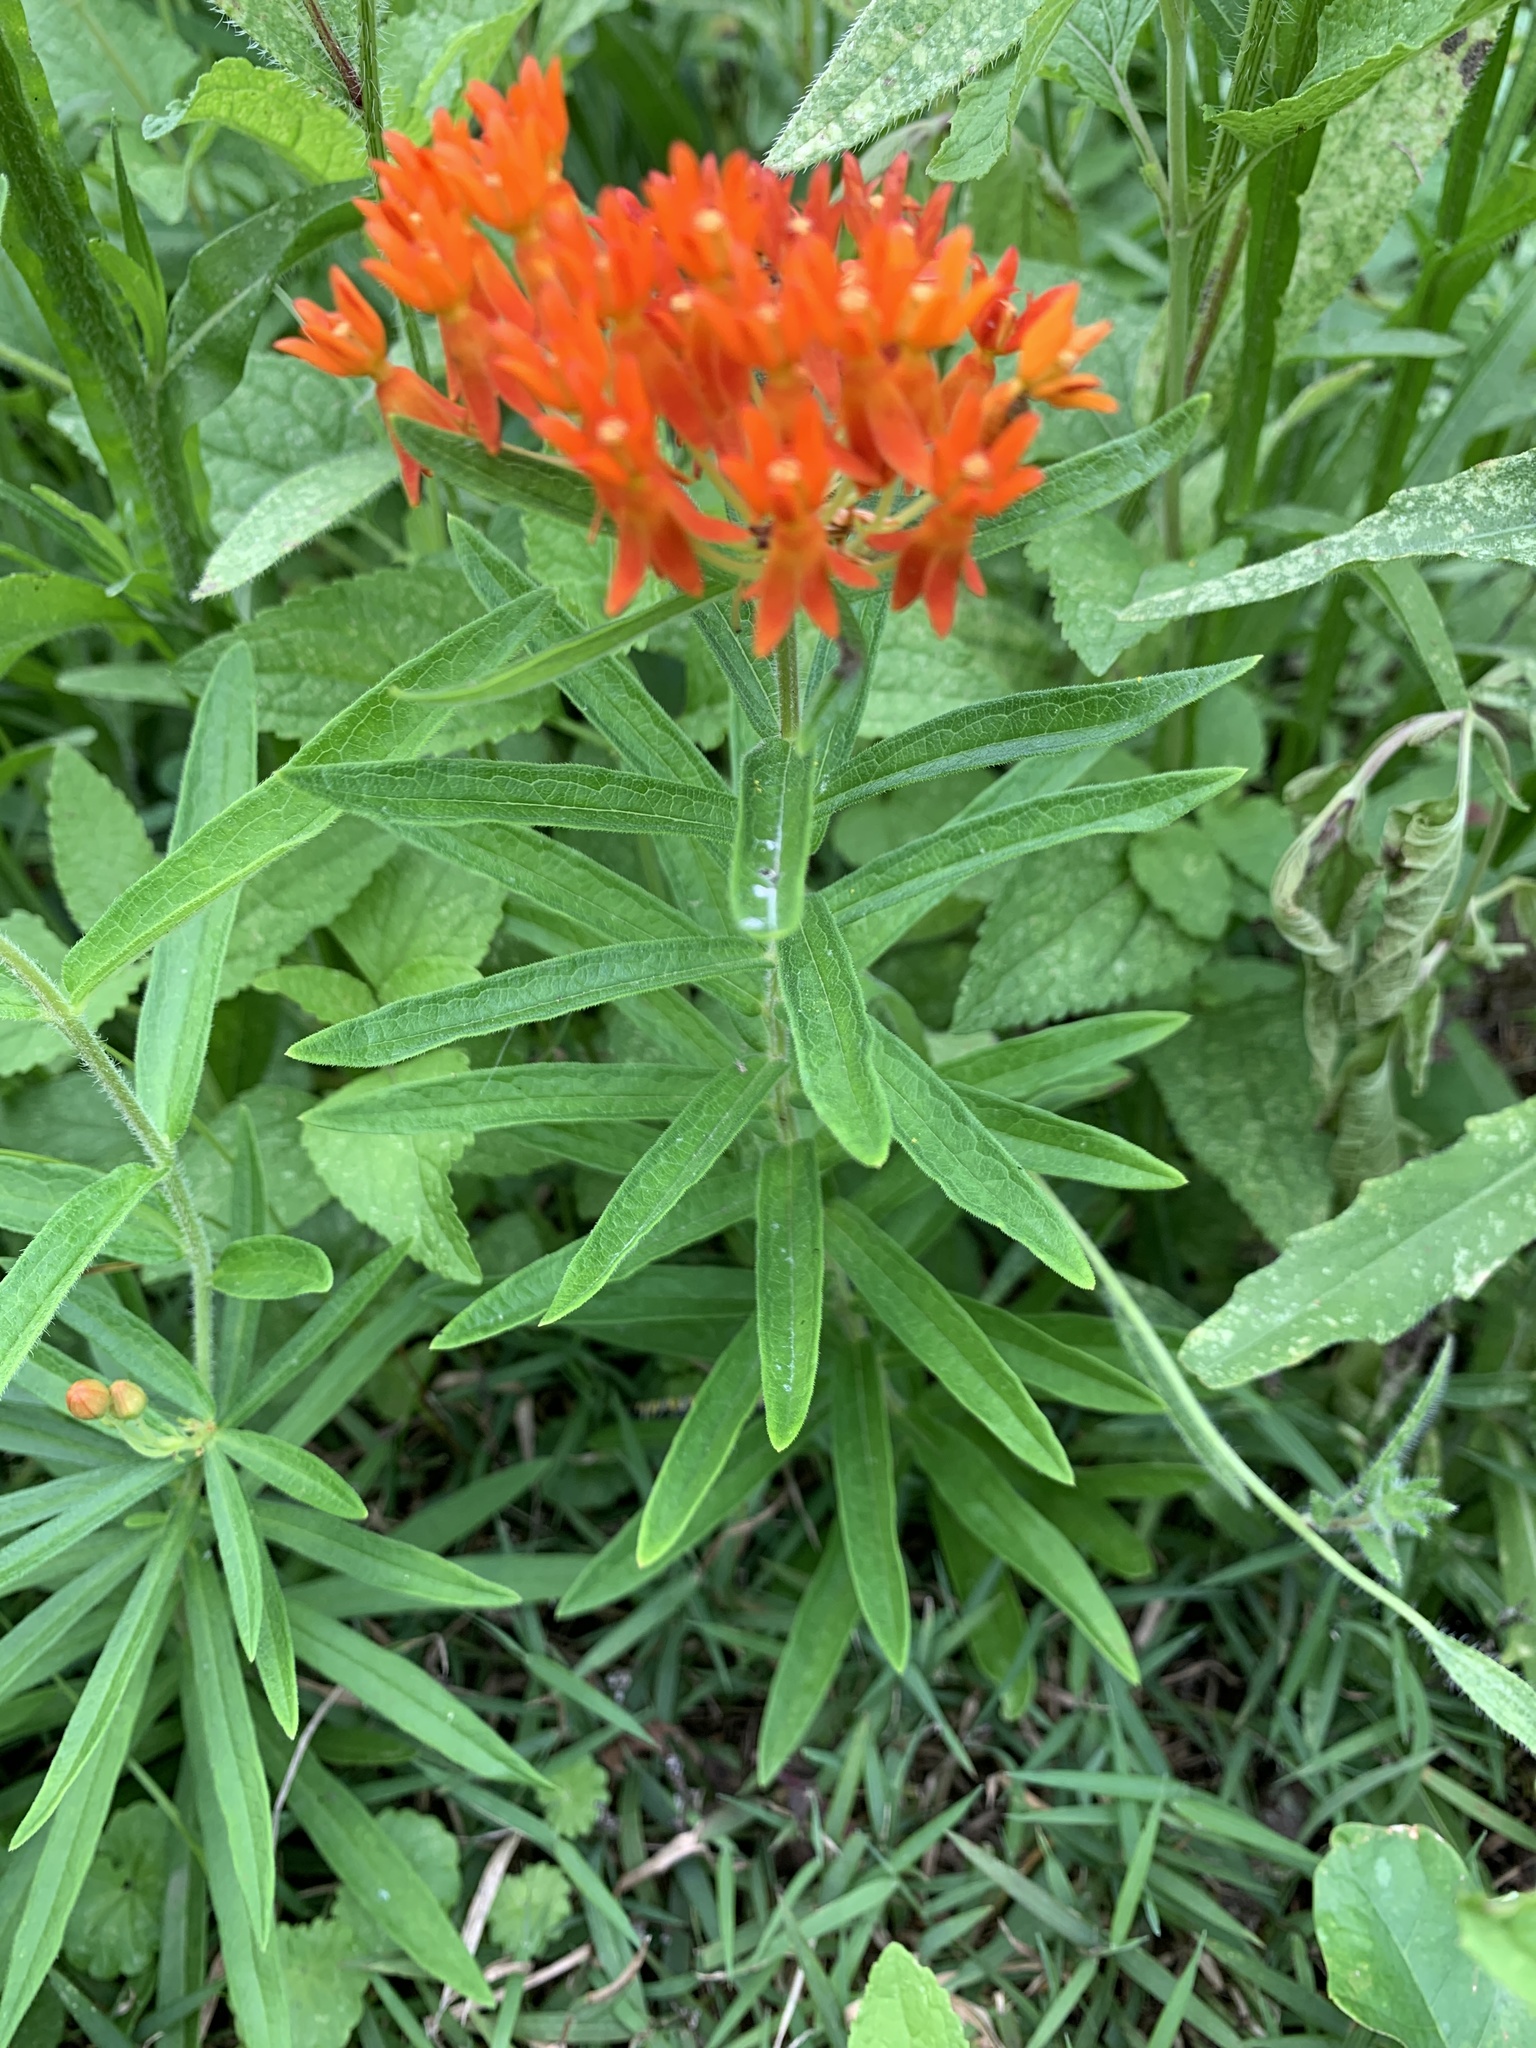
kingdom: Plantae
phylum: Tracheophyta
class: Magnoliopsida
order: Gentianales
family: Apocynaceae
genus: Asclepias
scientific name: Asclepias tuberosa
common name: Butterfly milkweed
